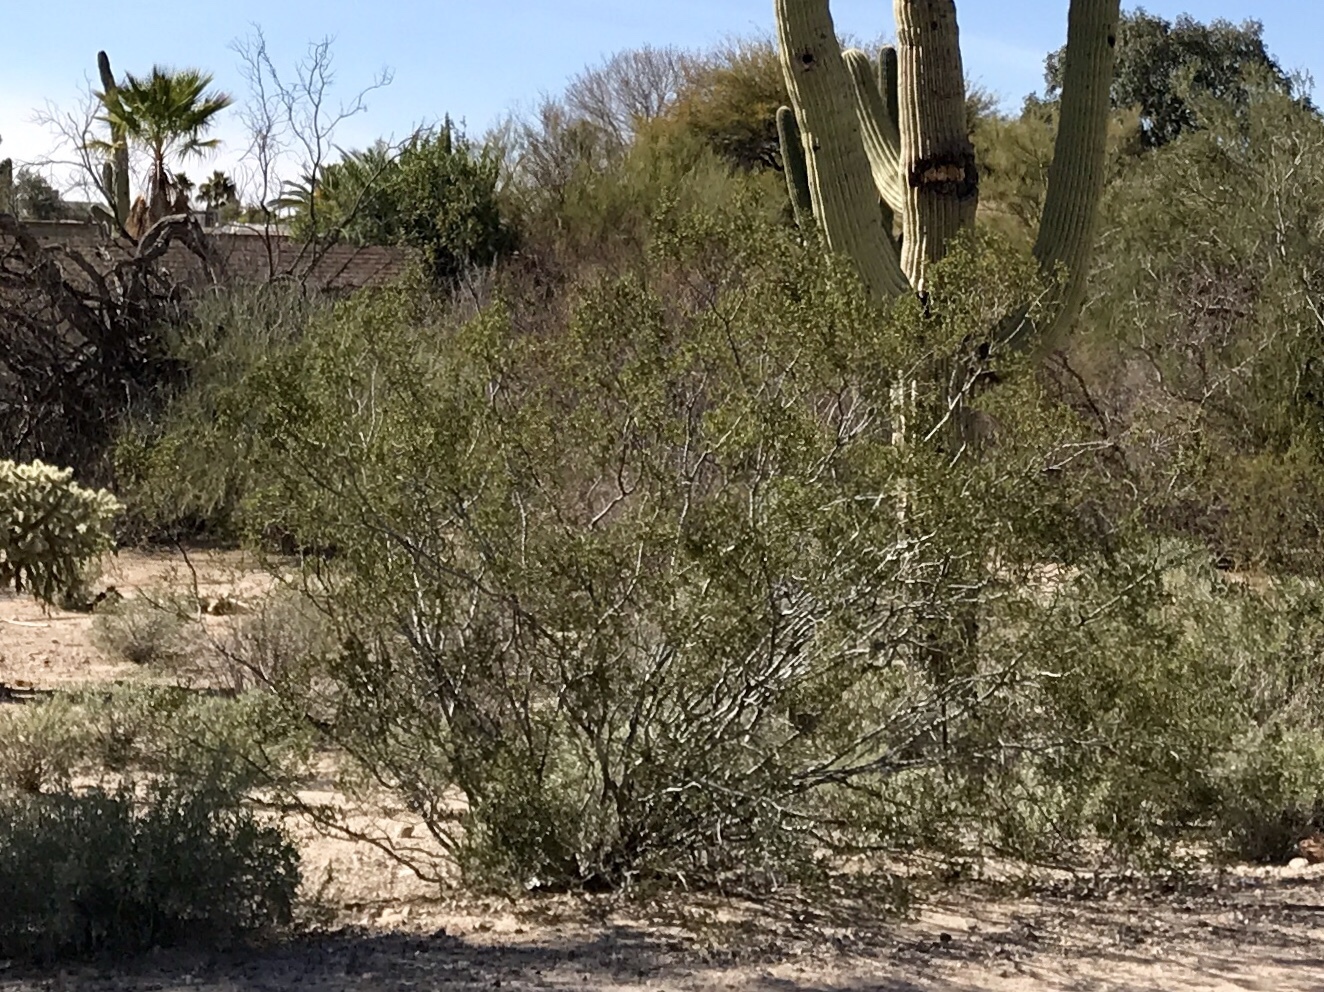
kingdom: Plantae
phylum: Tracheophyta
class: Magnoliopsida
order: Zygophyllales
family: Zygophyllaceae
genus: Larrea
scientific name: Larrea tridentata
